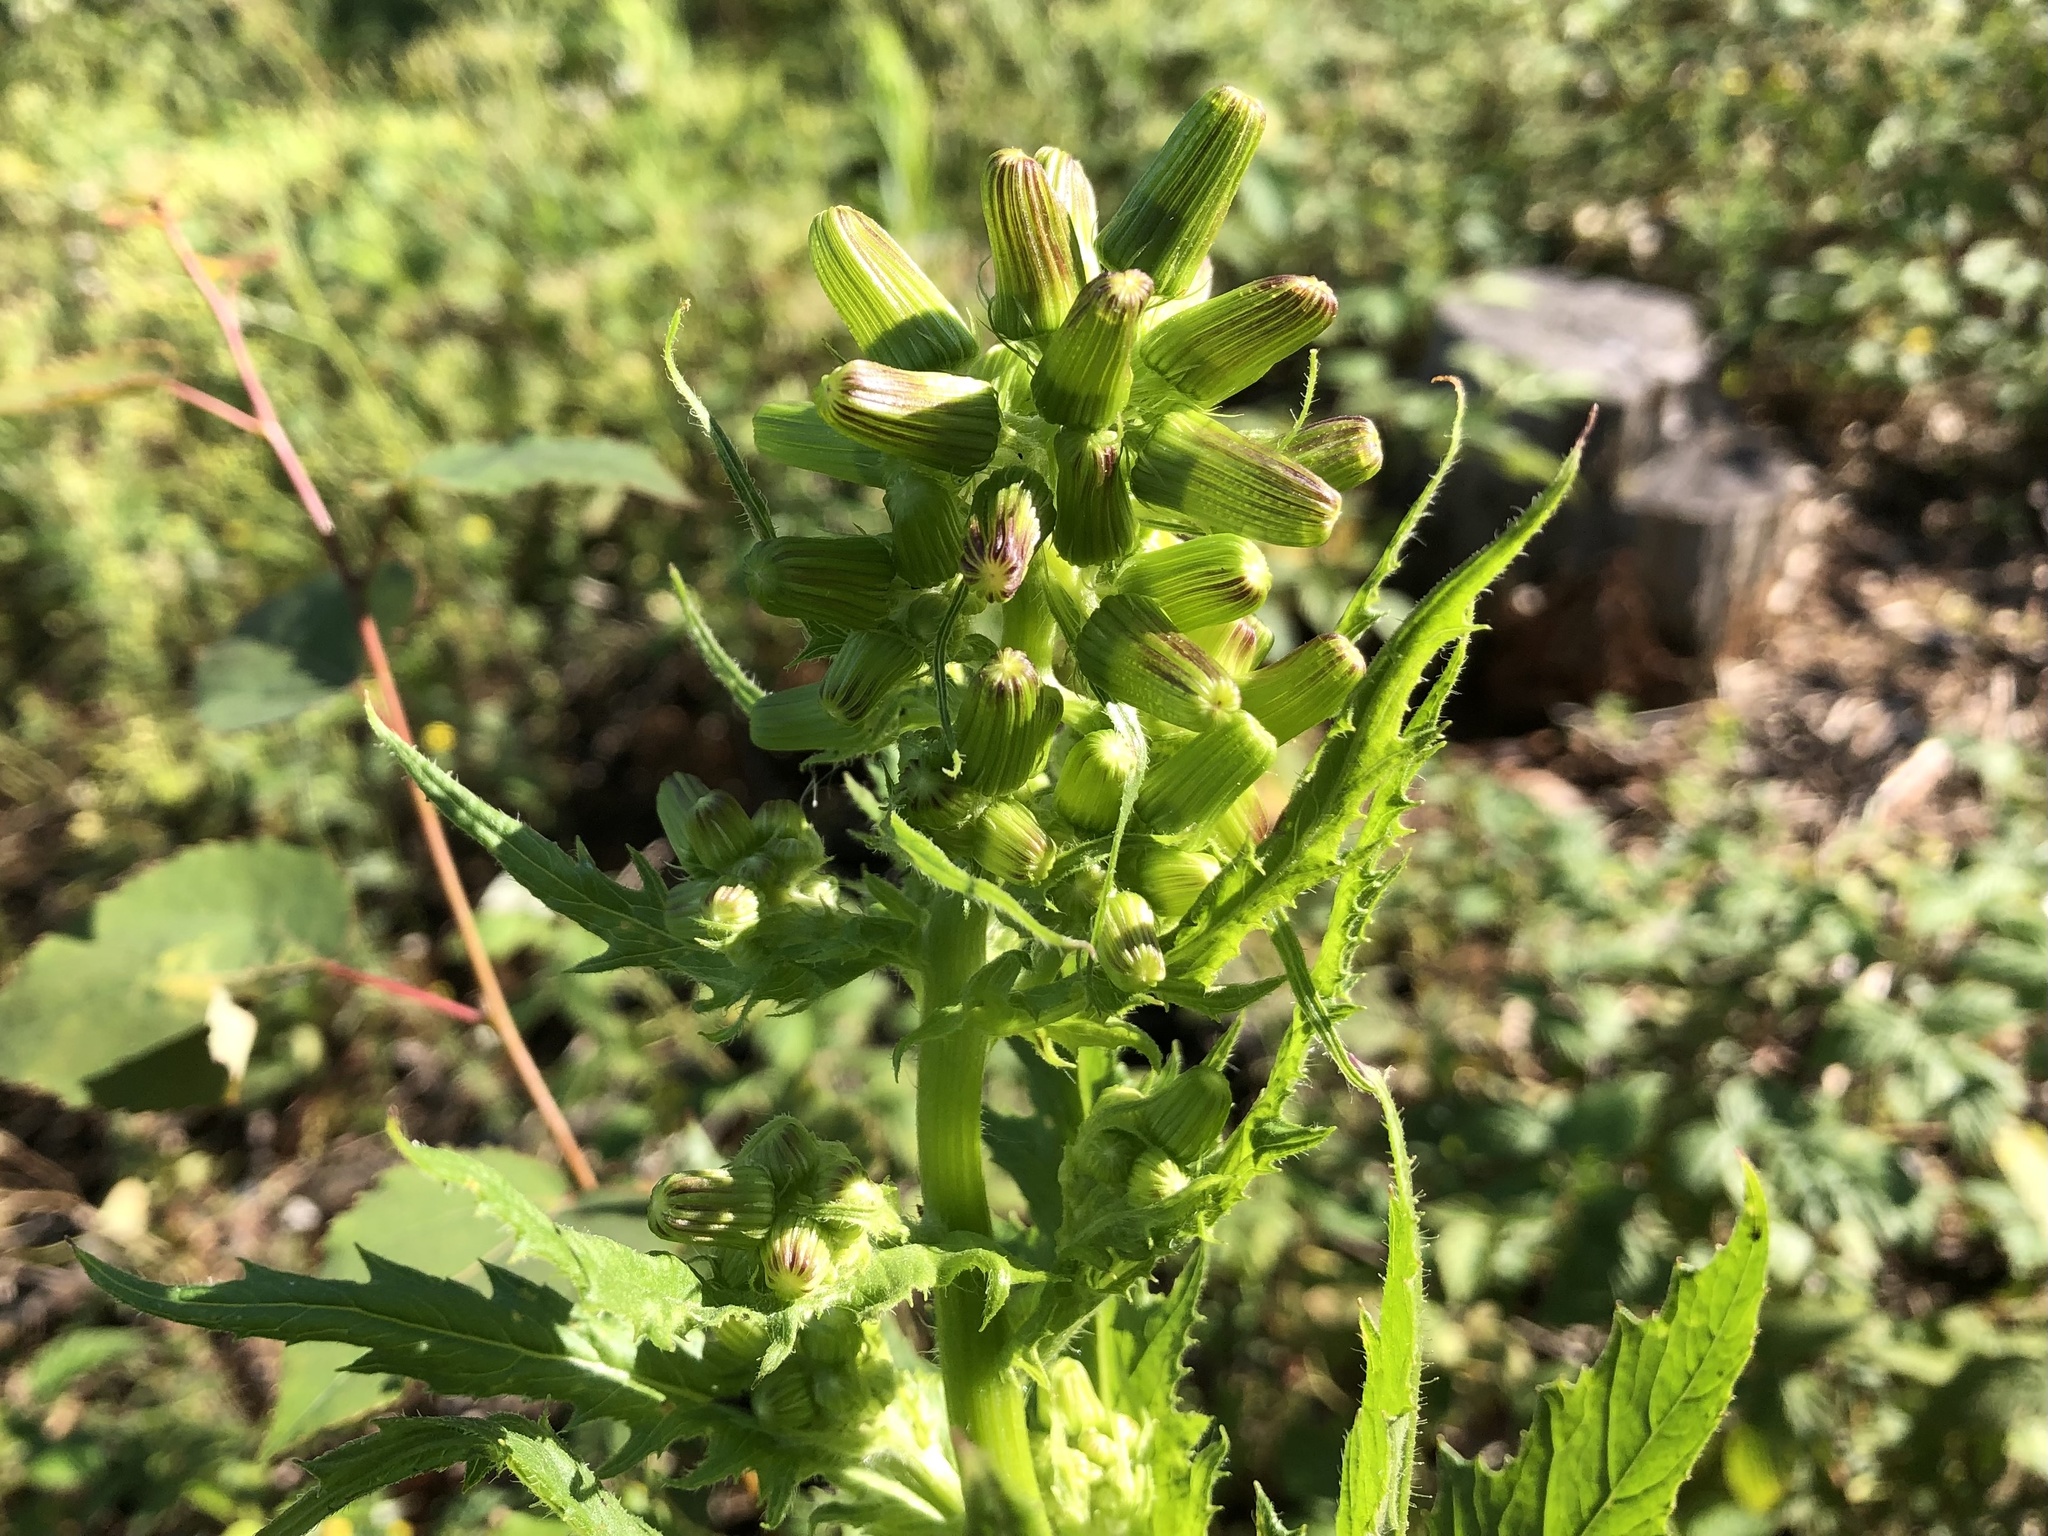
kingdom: Plantae
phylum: Tracheophyta
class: Magnoliopsida
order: Asterales
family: Asteraceae
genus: Erechtites
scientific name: Erechtites hieraciifolius
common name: American burnweed
